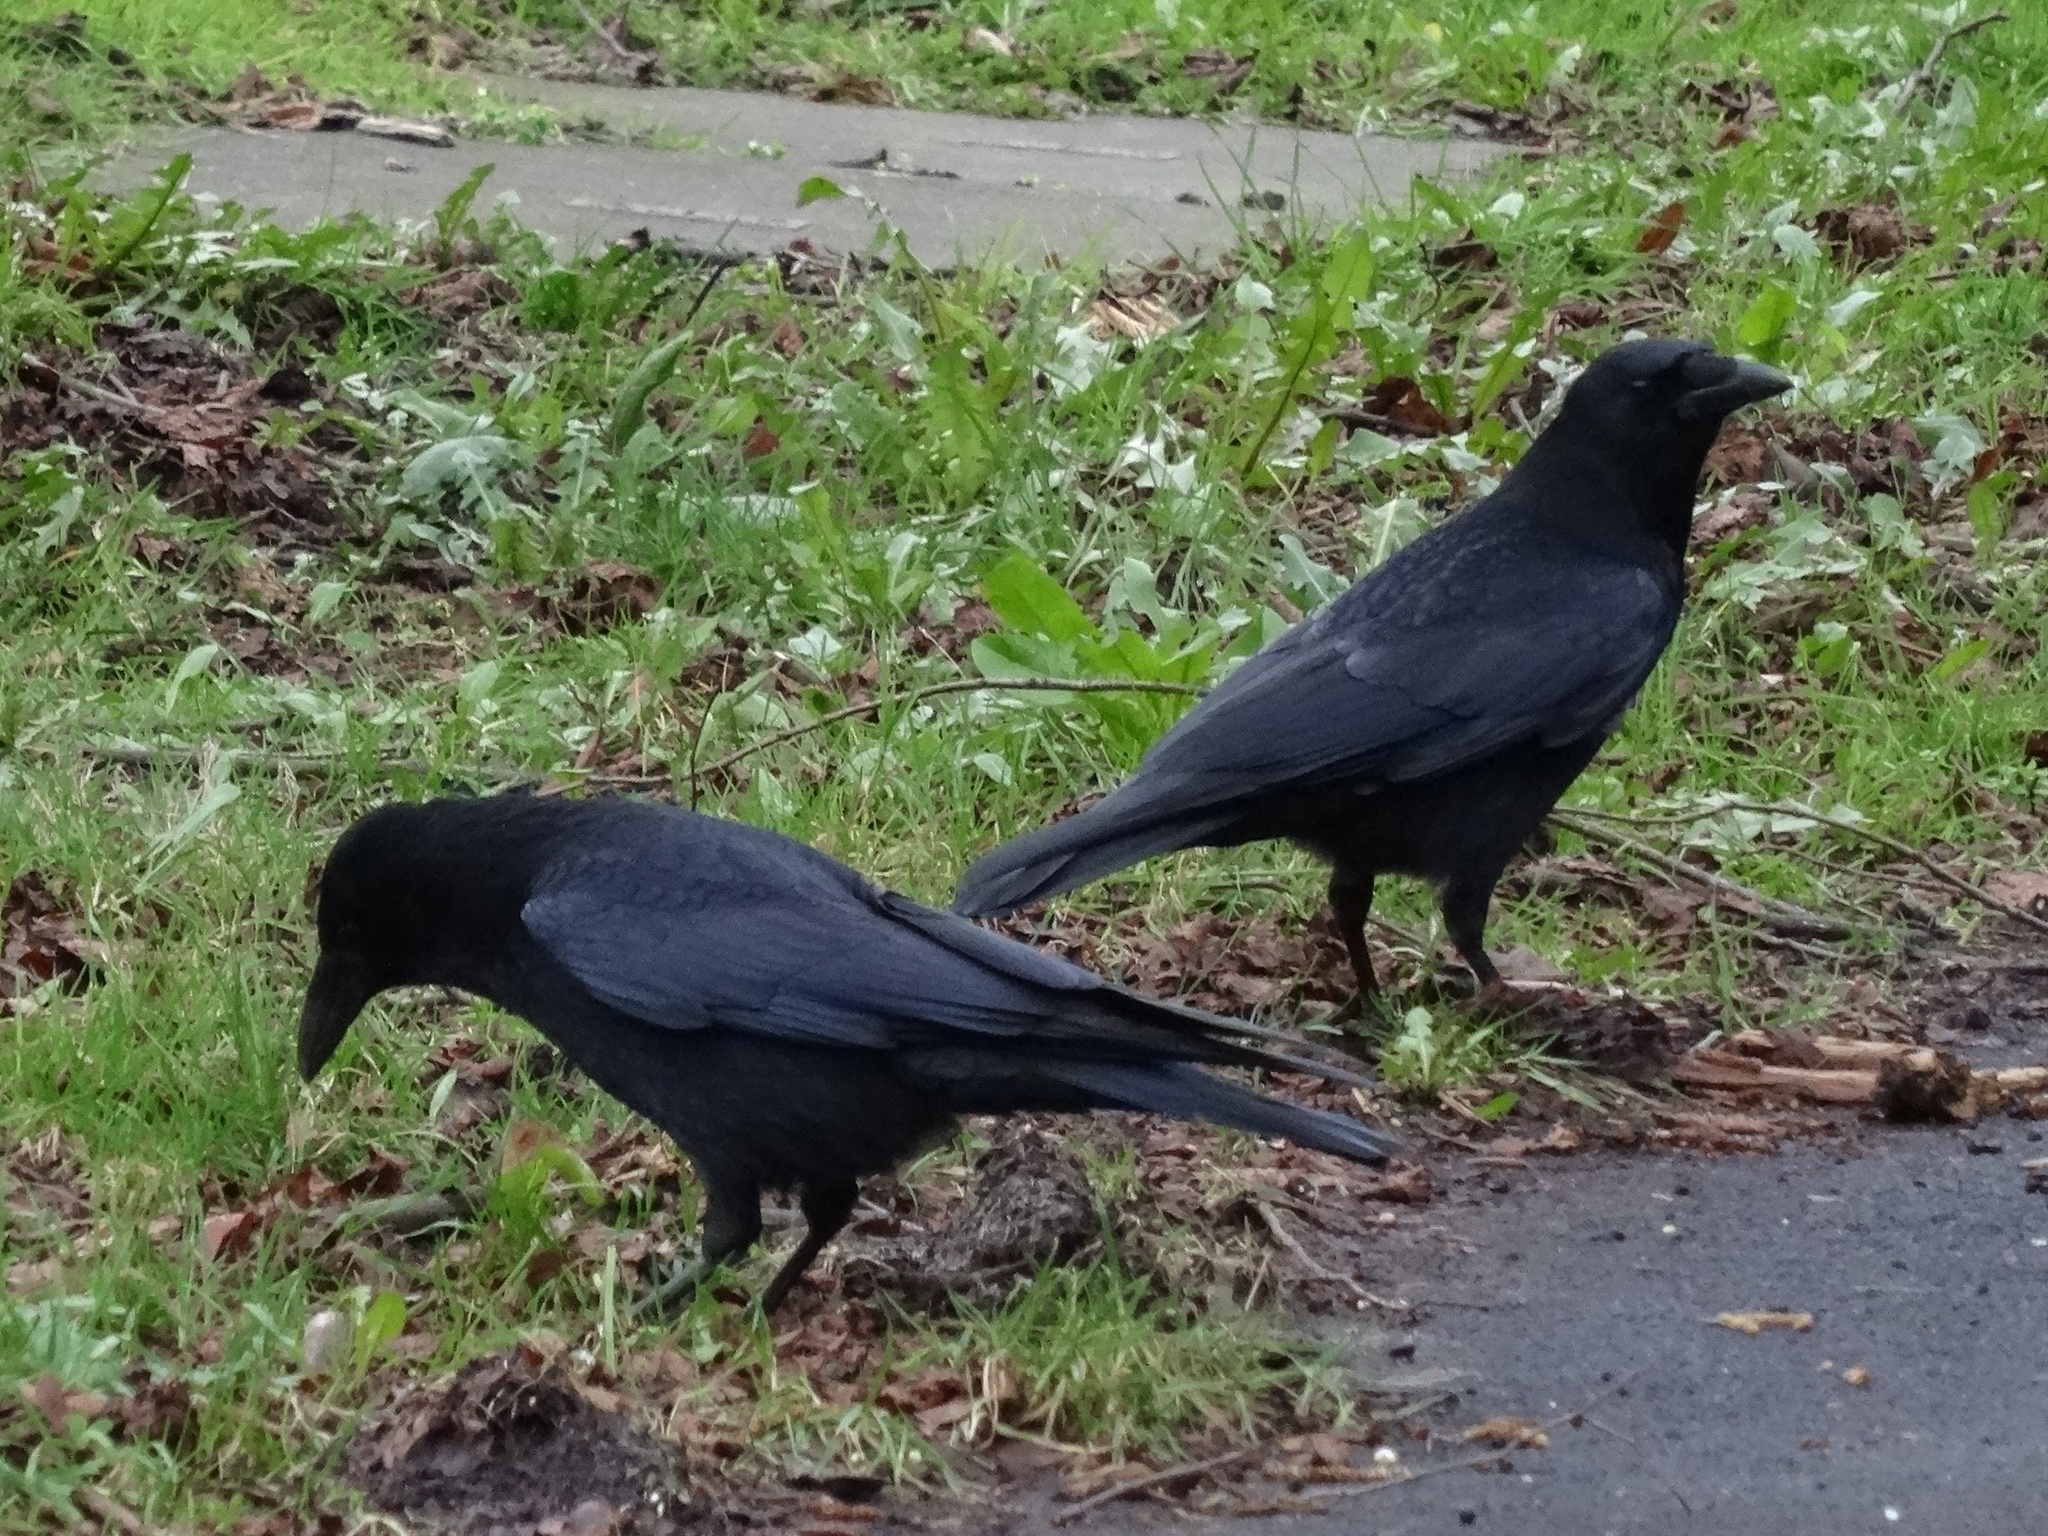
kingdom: Animalia
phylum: Chordata
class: Aves
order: Passeriformes
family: Corvidae
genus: Corvus
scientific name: Corvus corone
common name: Carrion crow
